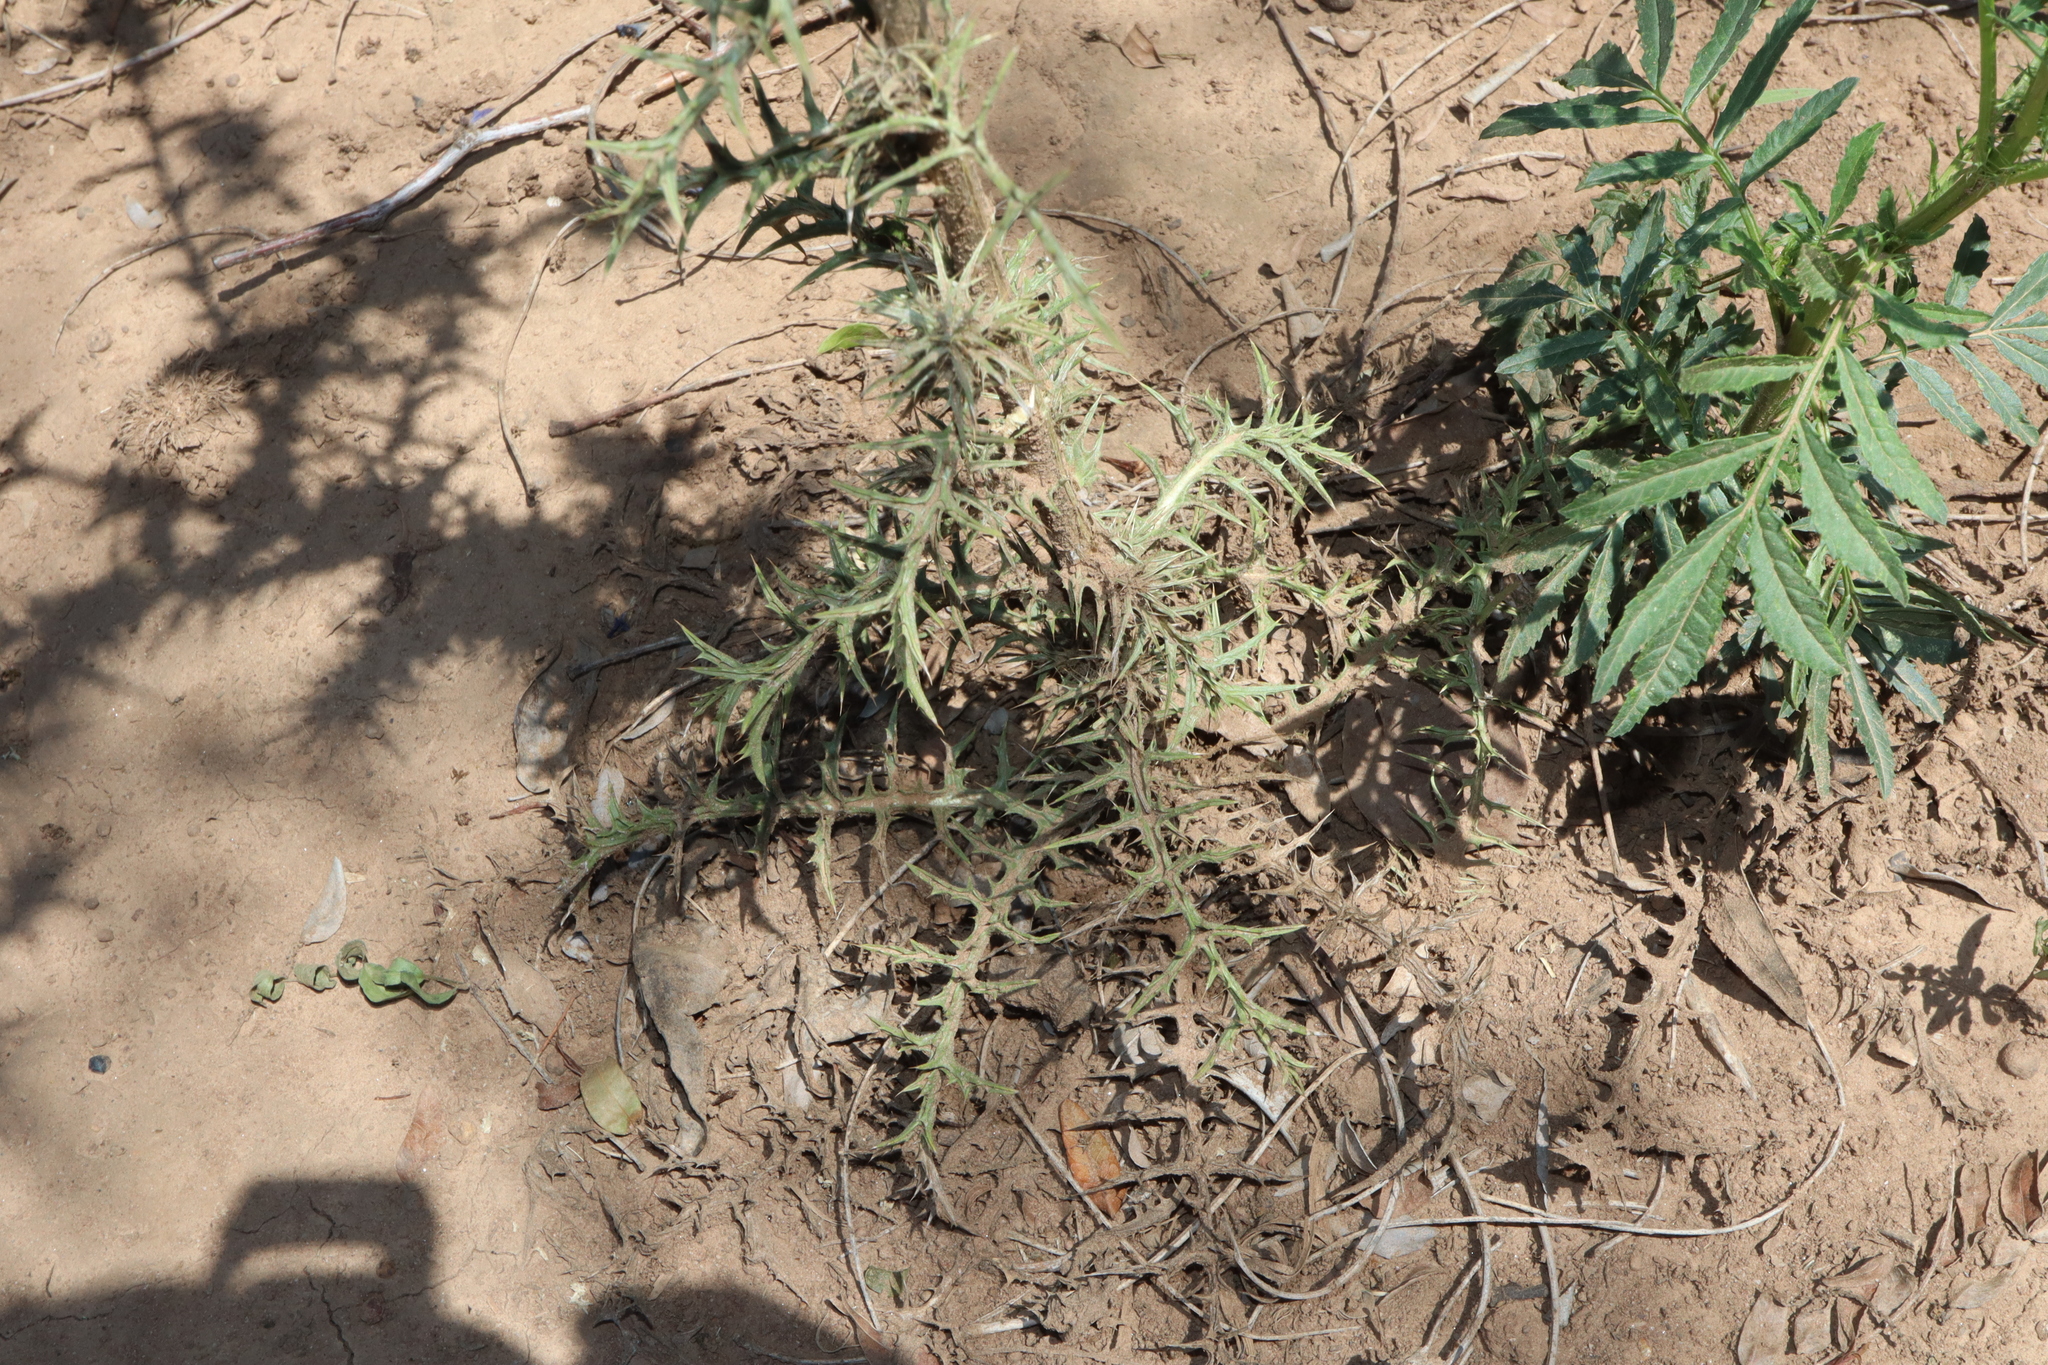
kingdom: Plantae
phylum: Tracheophyta
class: Magnoliopsida
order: Asterales
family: Asteraceae
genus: Carthamus
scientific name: Carthamus lanatus
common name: Downy safflower
